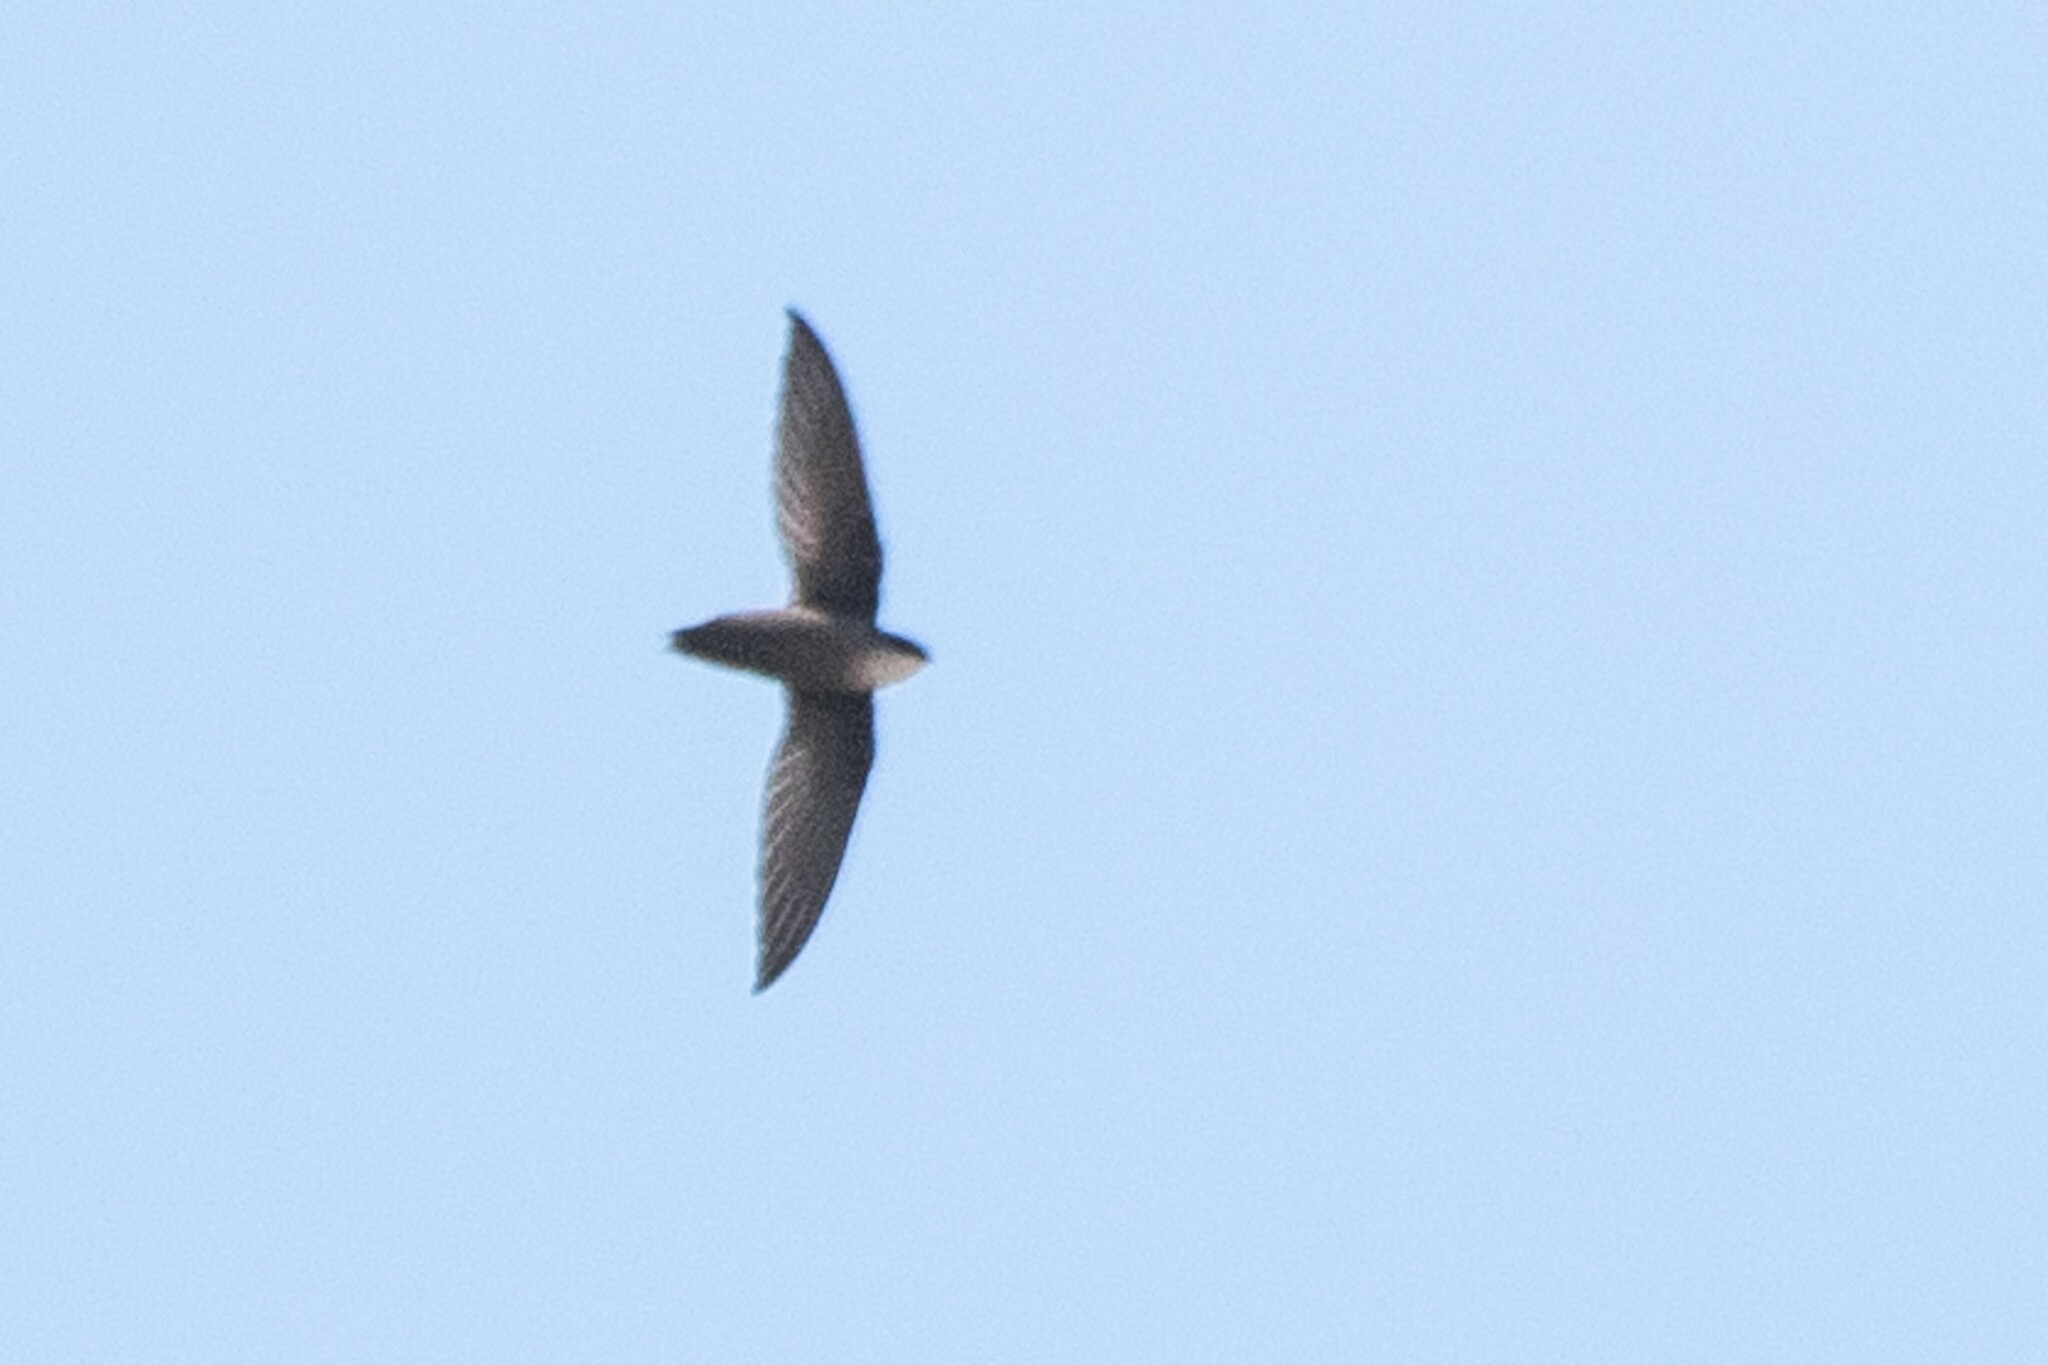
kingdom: Animalia
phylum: Chordata
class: Aves
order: Apodiformes
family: Apodidae
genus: Chaetura
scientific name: Chaetura pelagica
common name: Chimney swift
